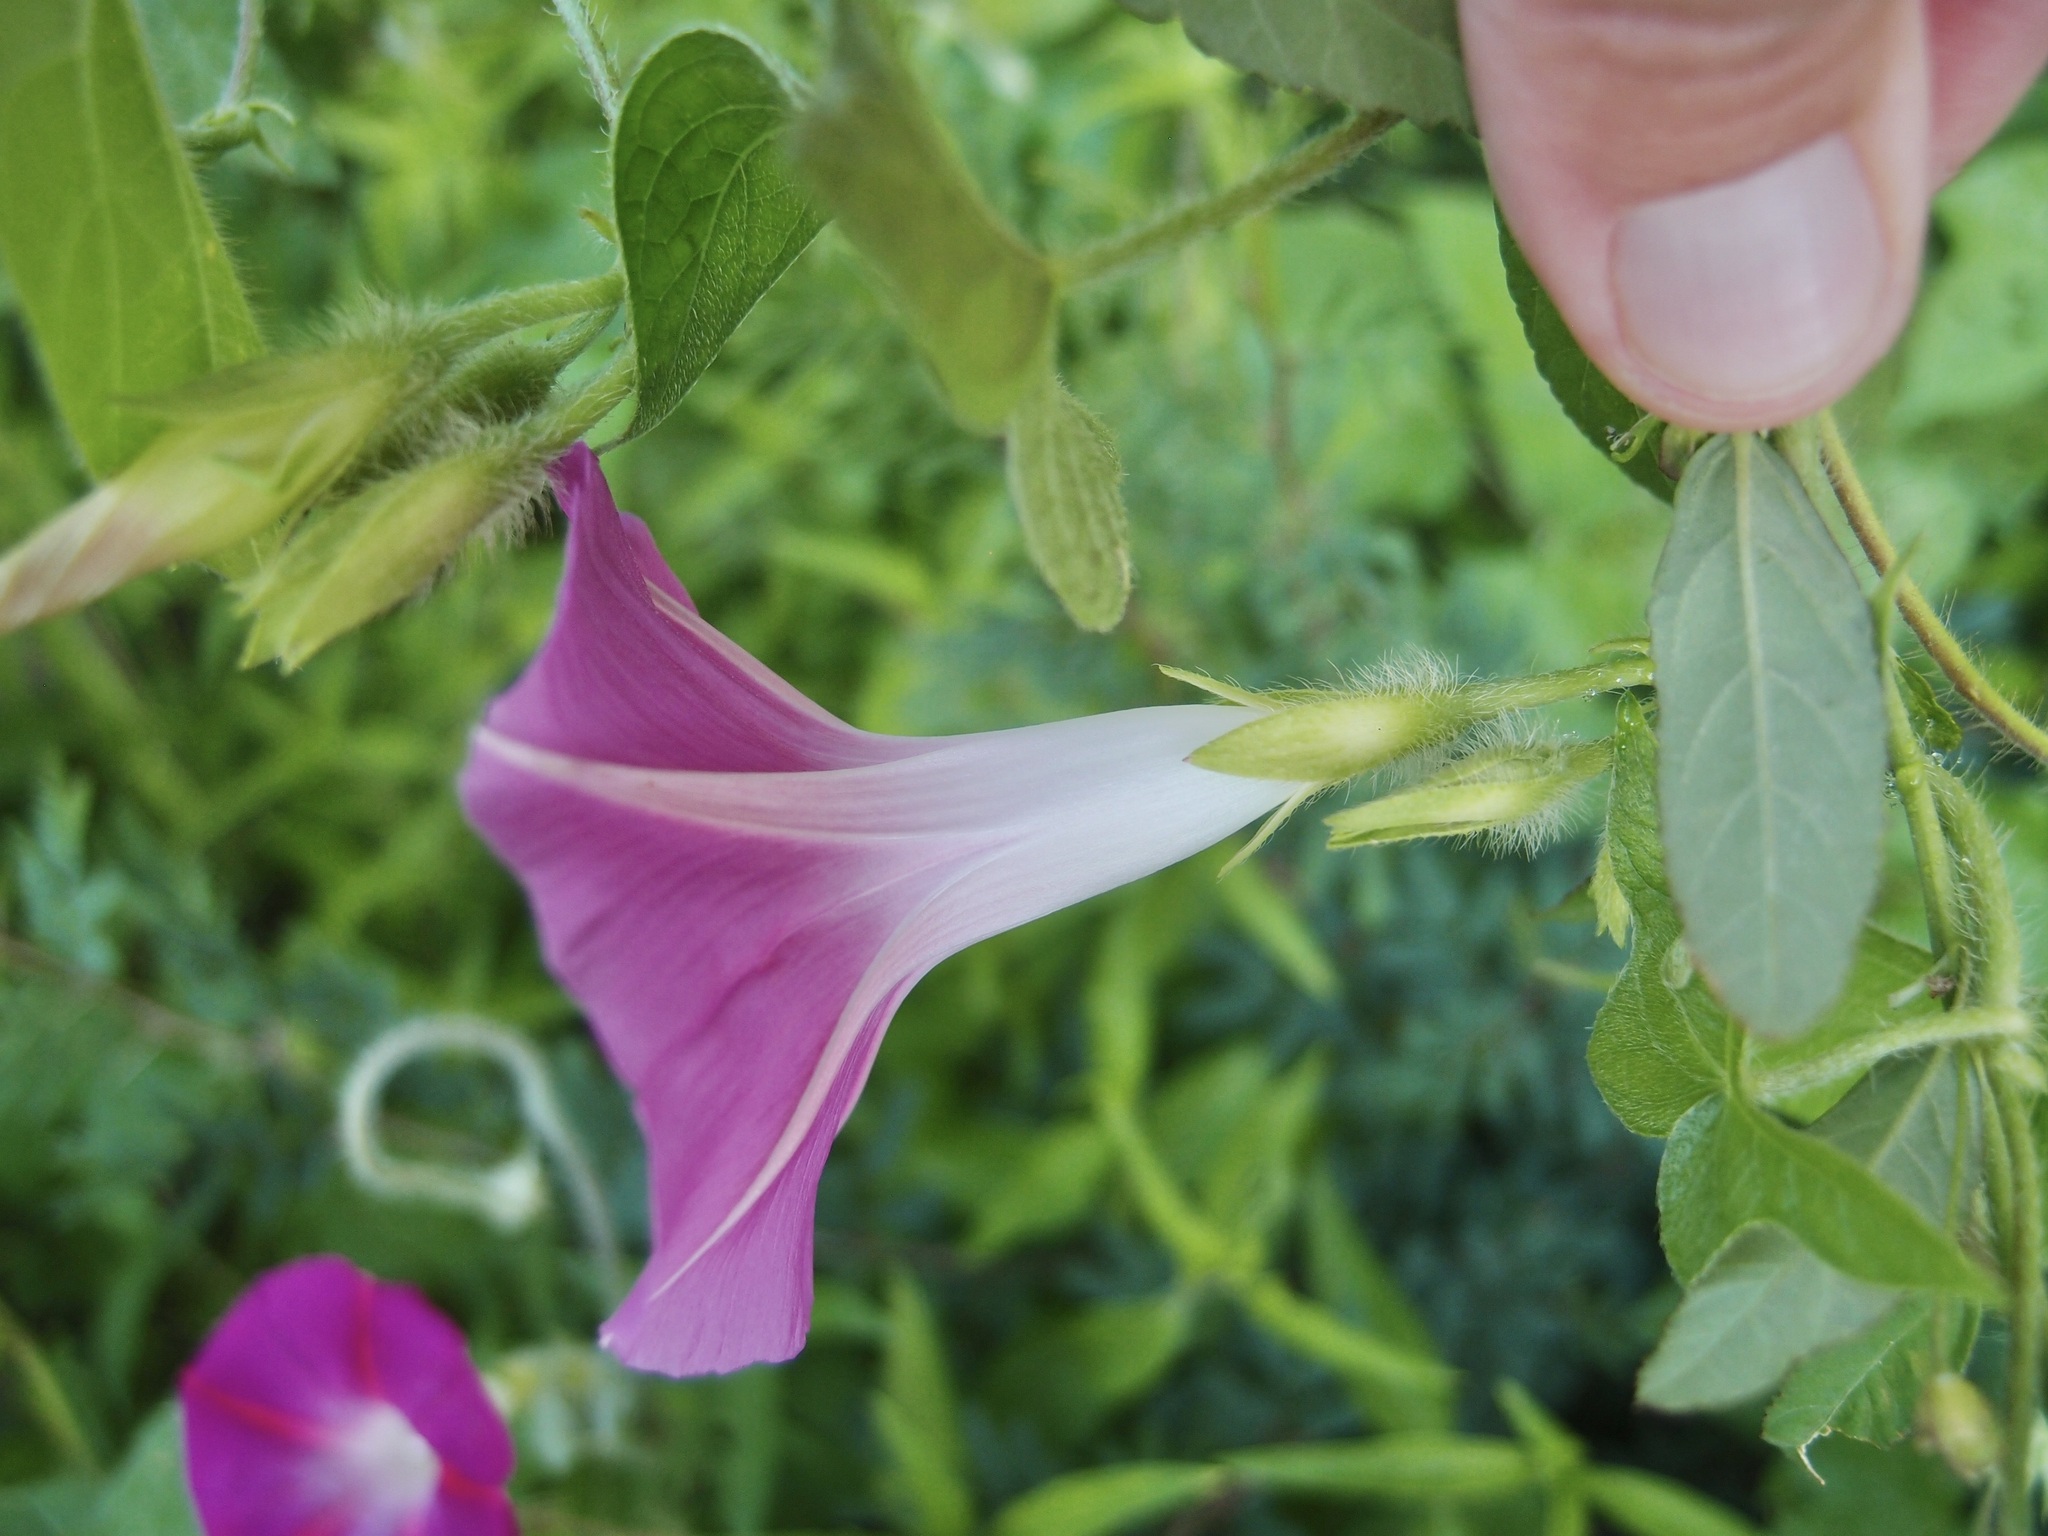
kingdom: Plantae
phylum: Tracheophyta
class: Magnoliopsida
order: Solanales
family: Convolvulaceae
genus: Ipomoea
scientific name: Ipomoea purpurea
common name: Common morning-glory
